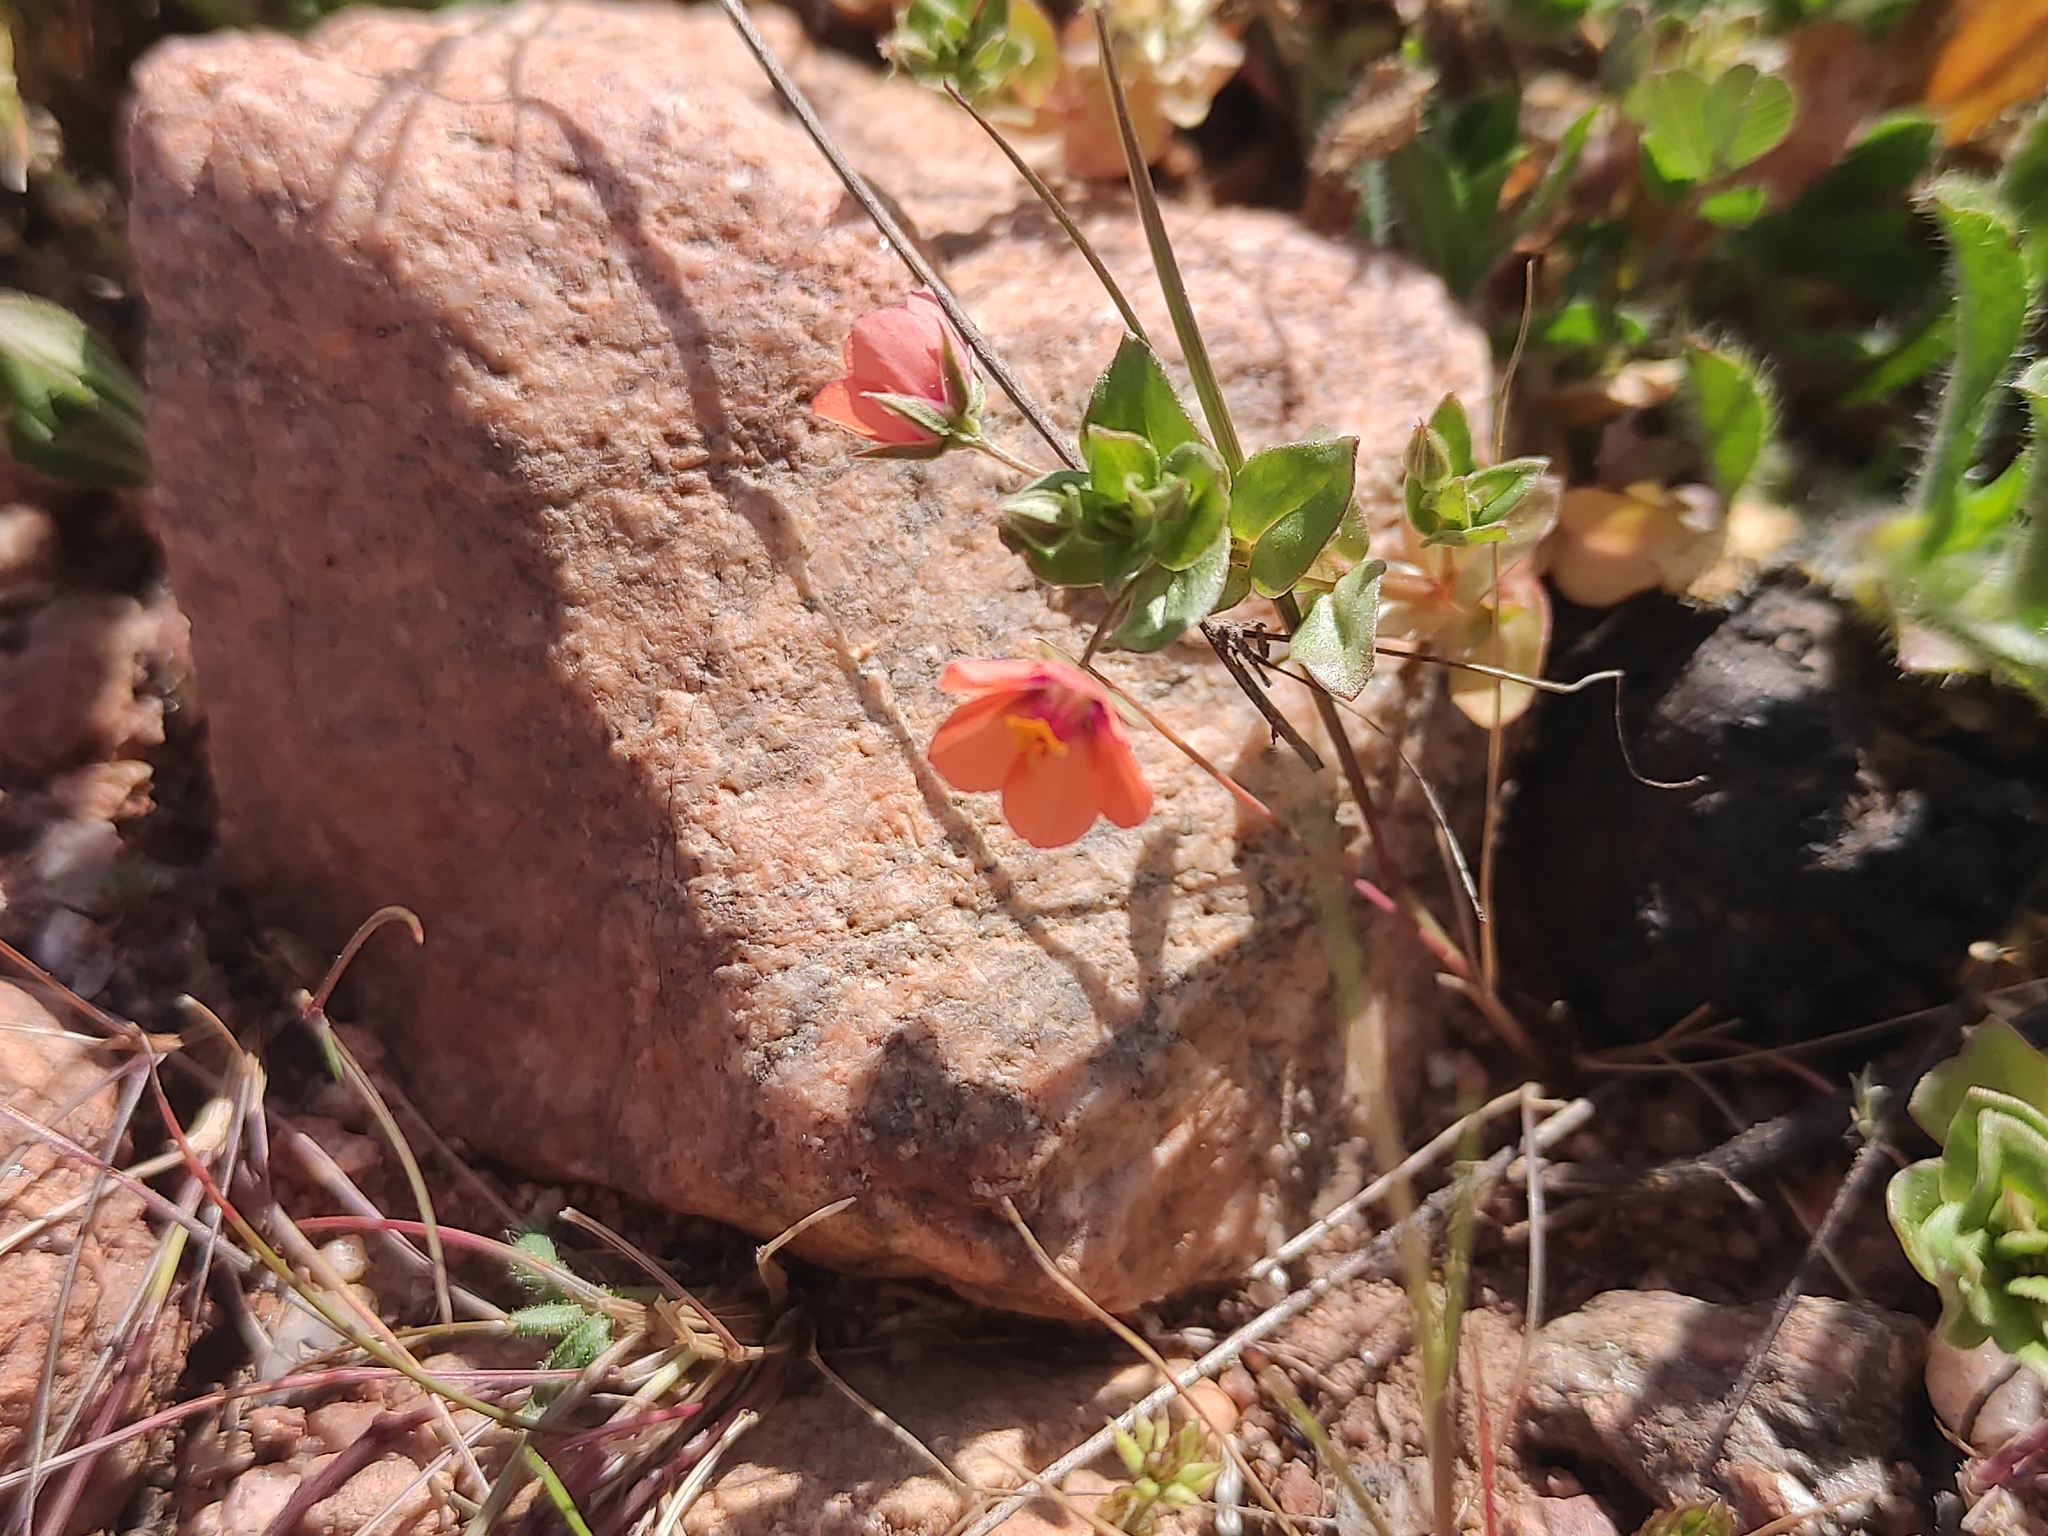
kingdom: Plantae
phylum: Tracheophyta
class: Magnoliopsida
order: Ericales
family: Primulaceae
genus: Lysimachia
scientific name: Lysimachia arvensis
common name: Scarlet pimpernel
